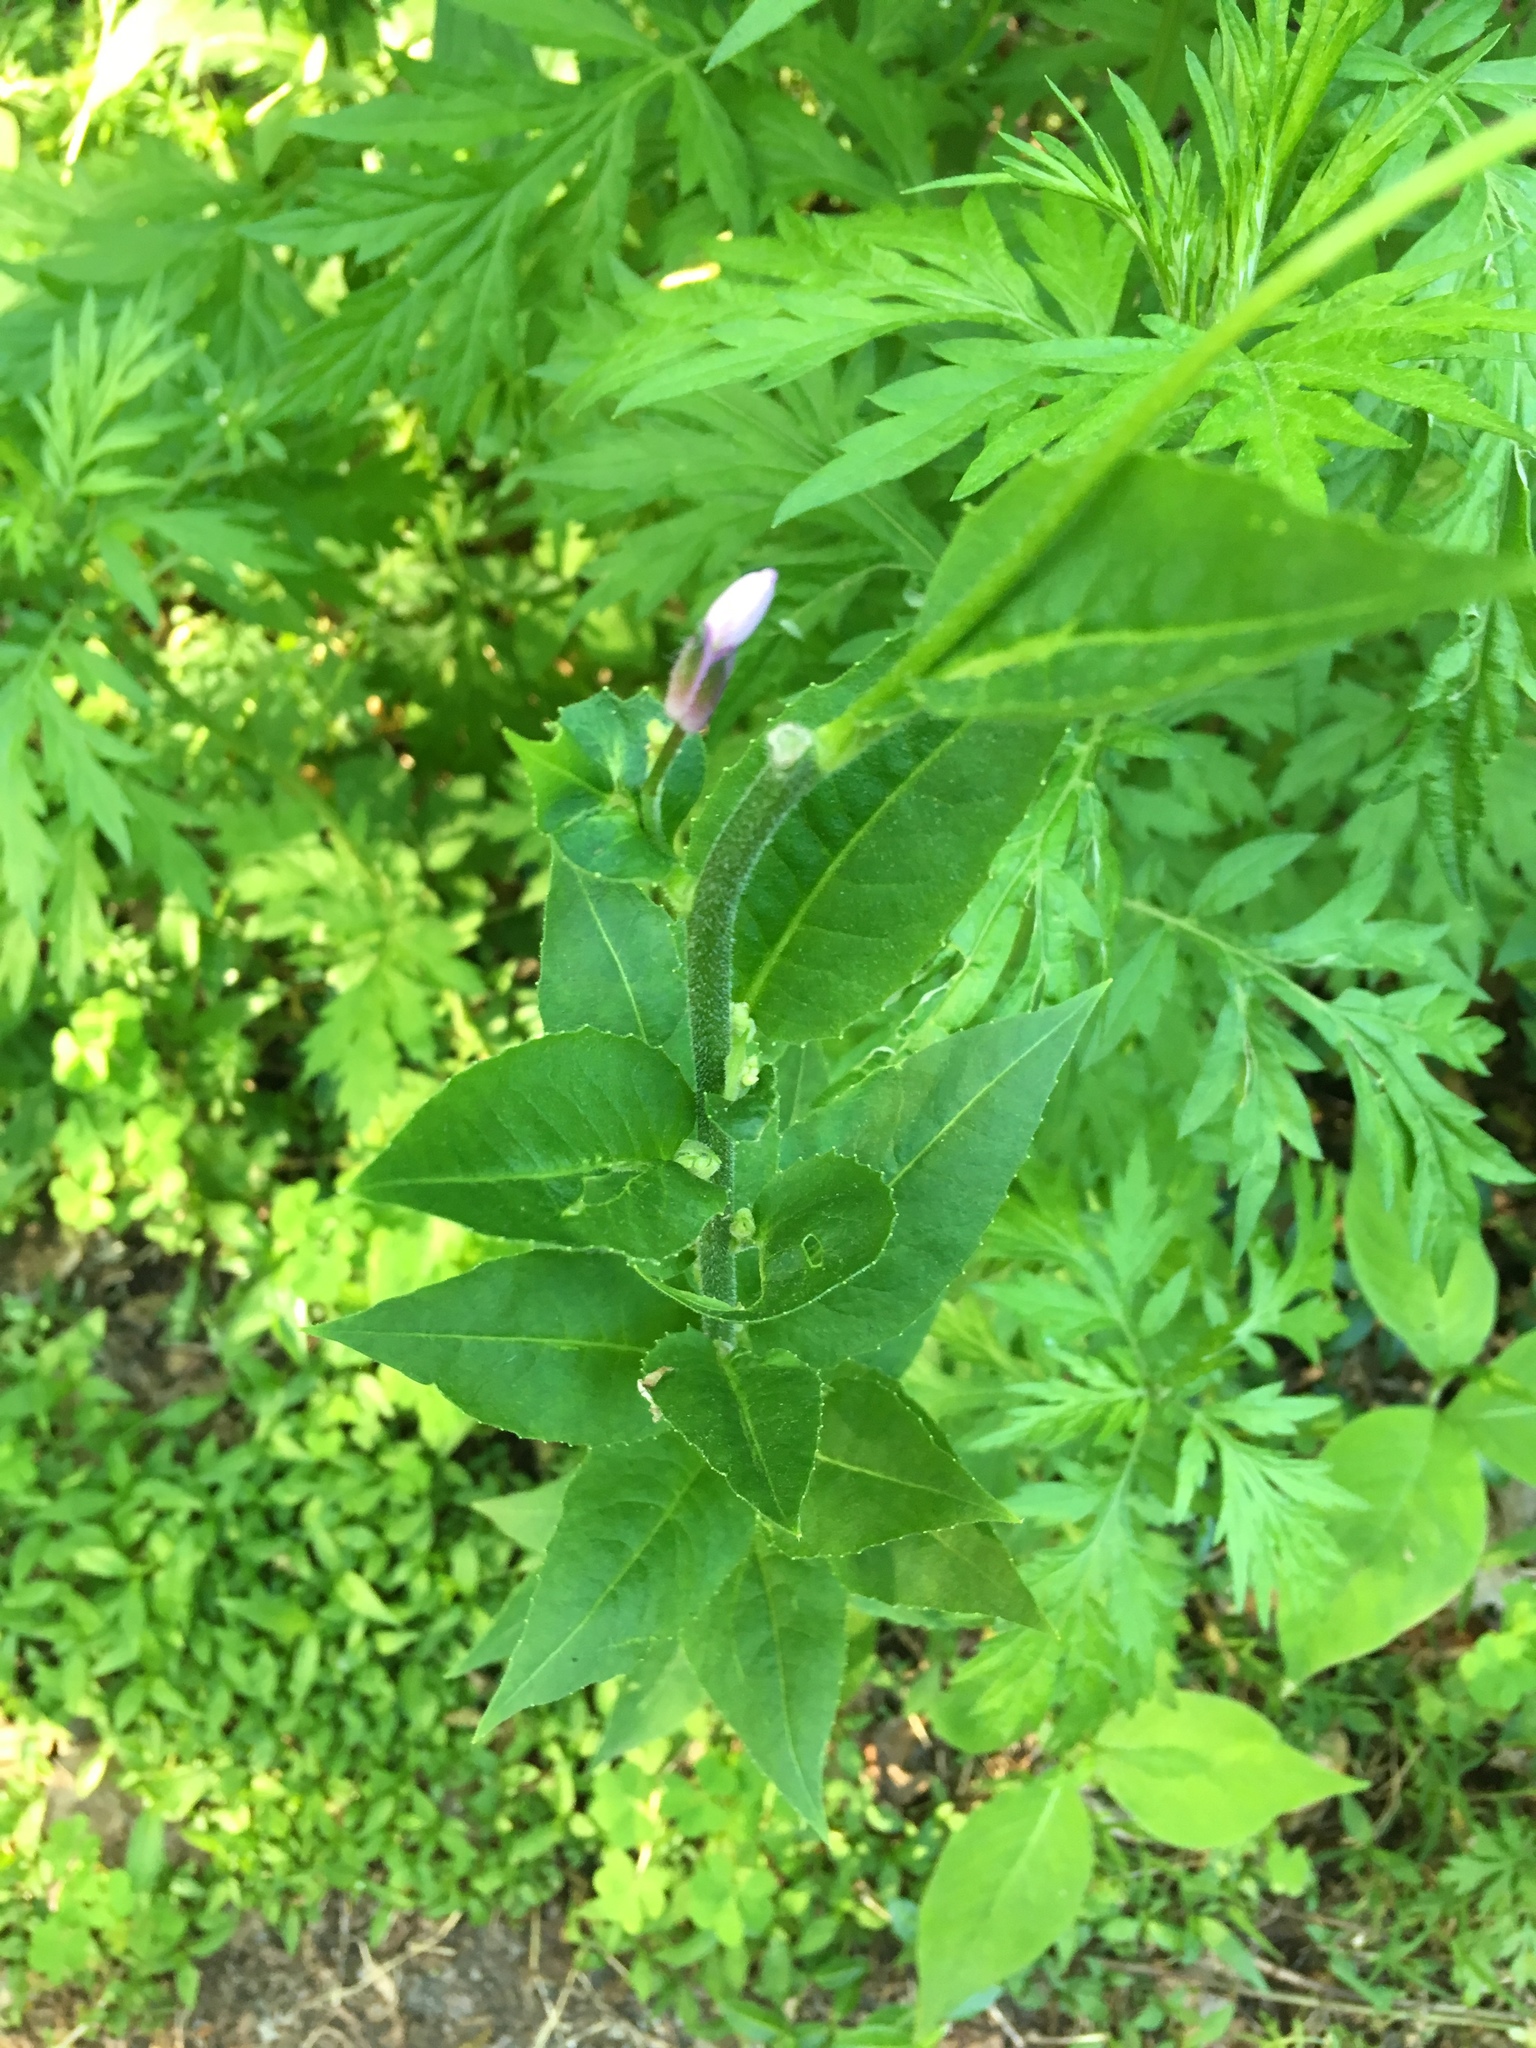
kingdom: Plantae
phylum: Tracheophyta
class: Magnoliopsida
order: Brassicales
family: Brassicaceae
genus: Hesperis
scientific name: Hesperis matronalis
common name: Dame's-violet
